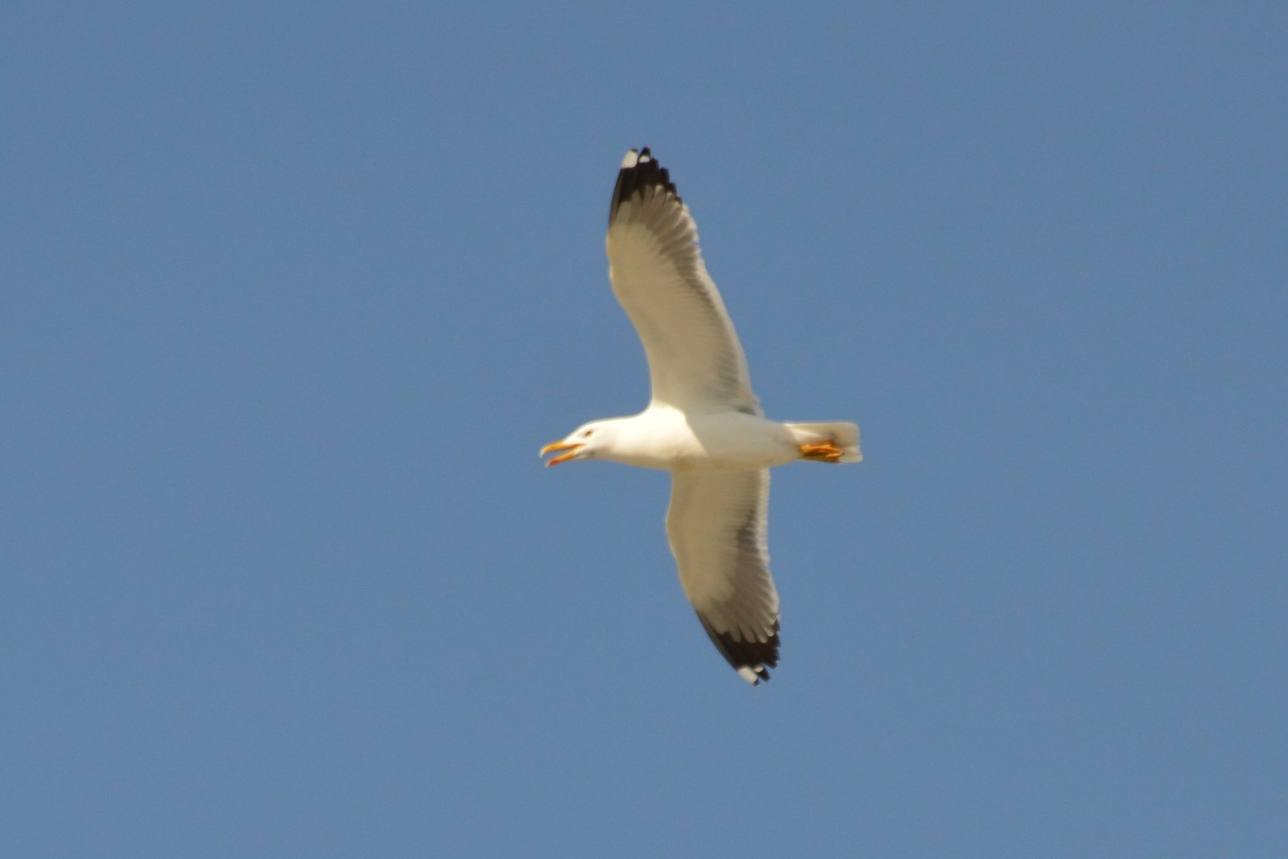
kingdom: Animalia
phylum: Chordata
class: Aves
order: Charadriiformes
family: Laridae
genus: Larus
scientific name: Larus fuscus
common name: Lesser black-backed gull
